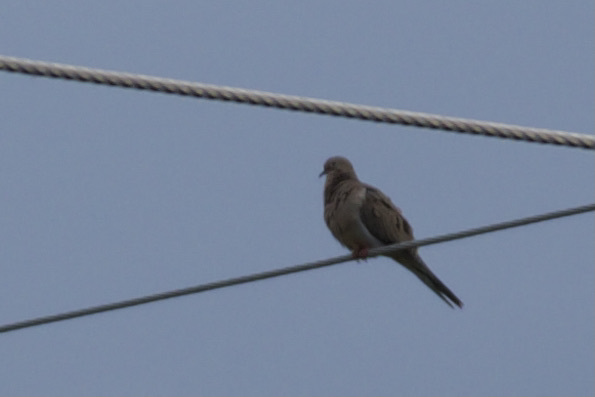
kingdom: Animalia
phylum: Chordata
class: Aves
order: Columbiformes
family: Columbidae
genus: Zenaida
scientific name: Zenaida macroura
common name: Mourning dove
